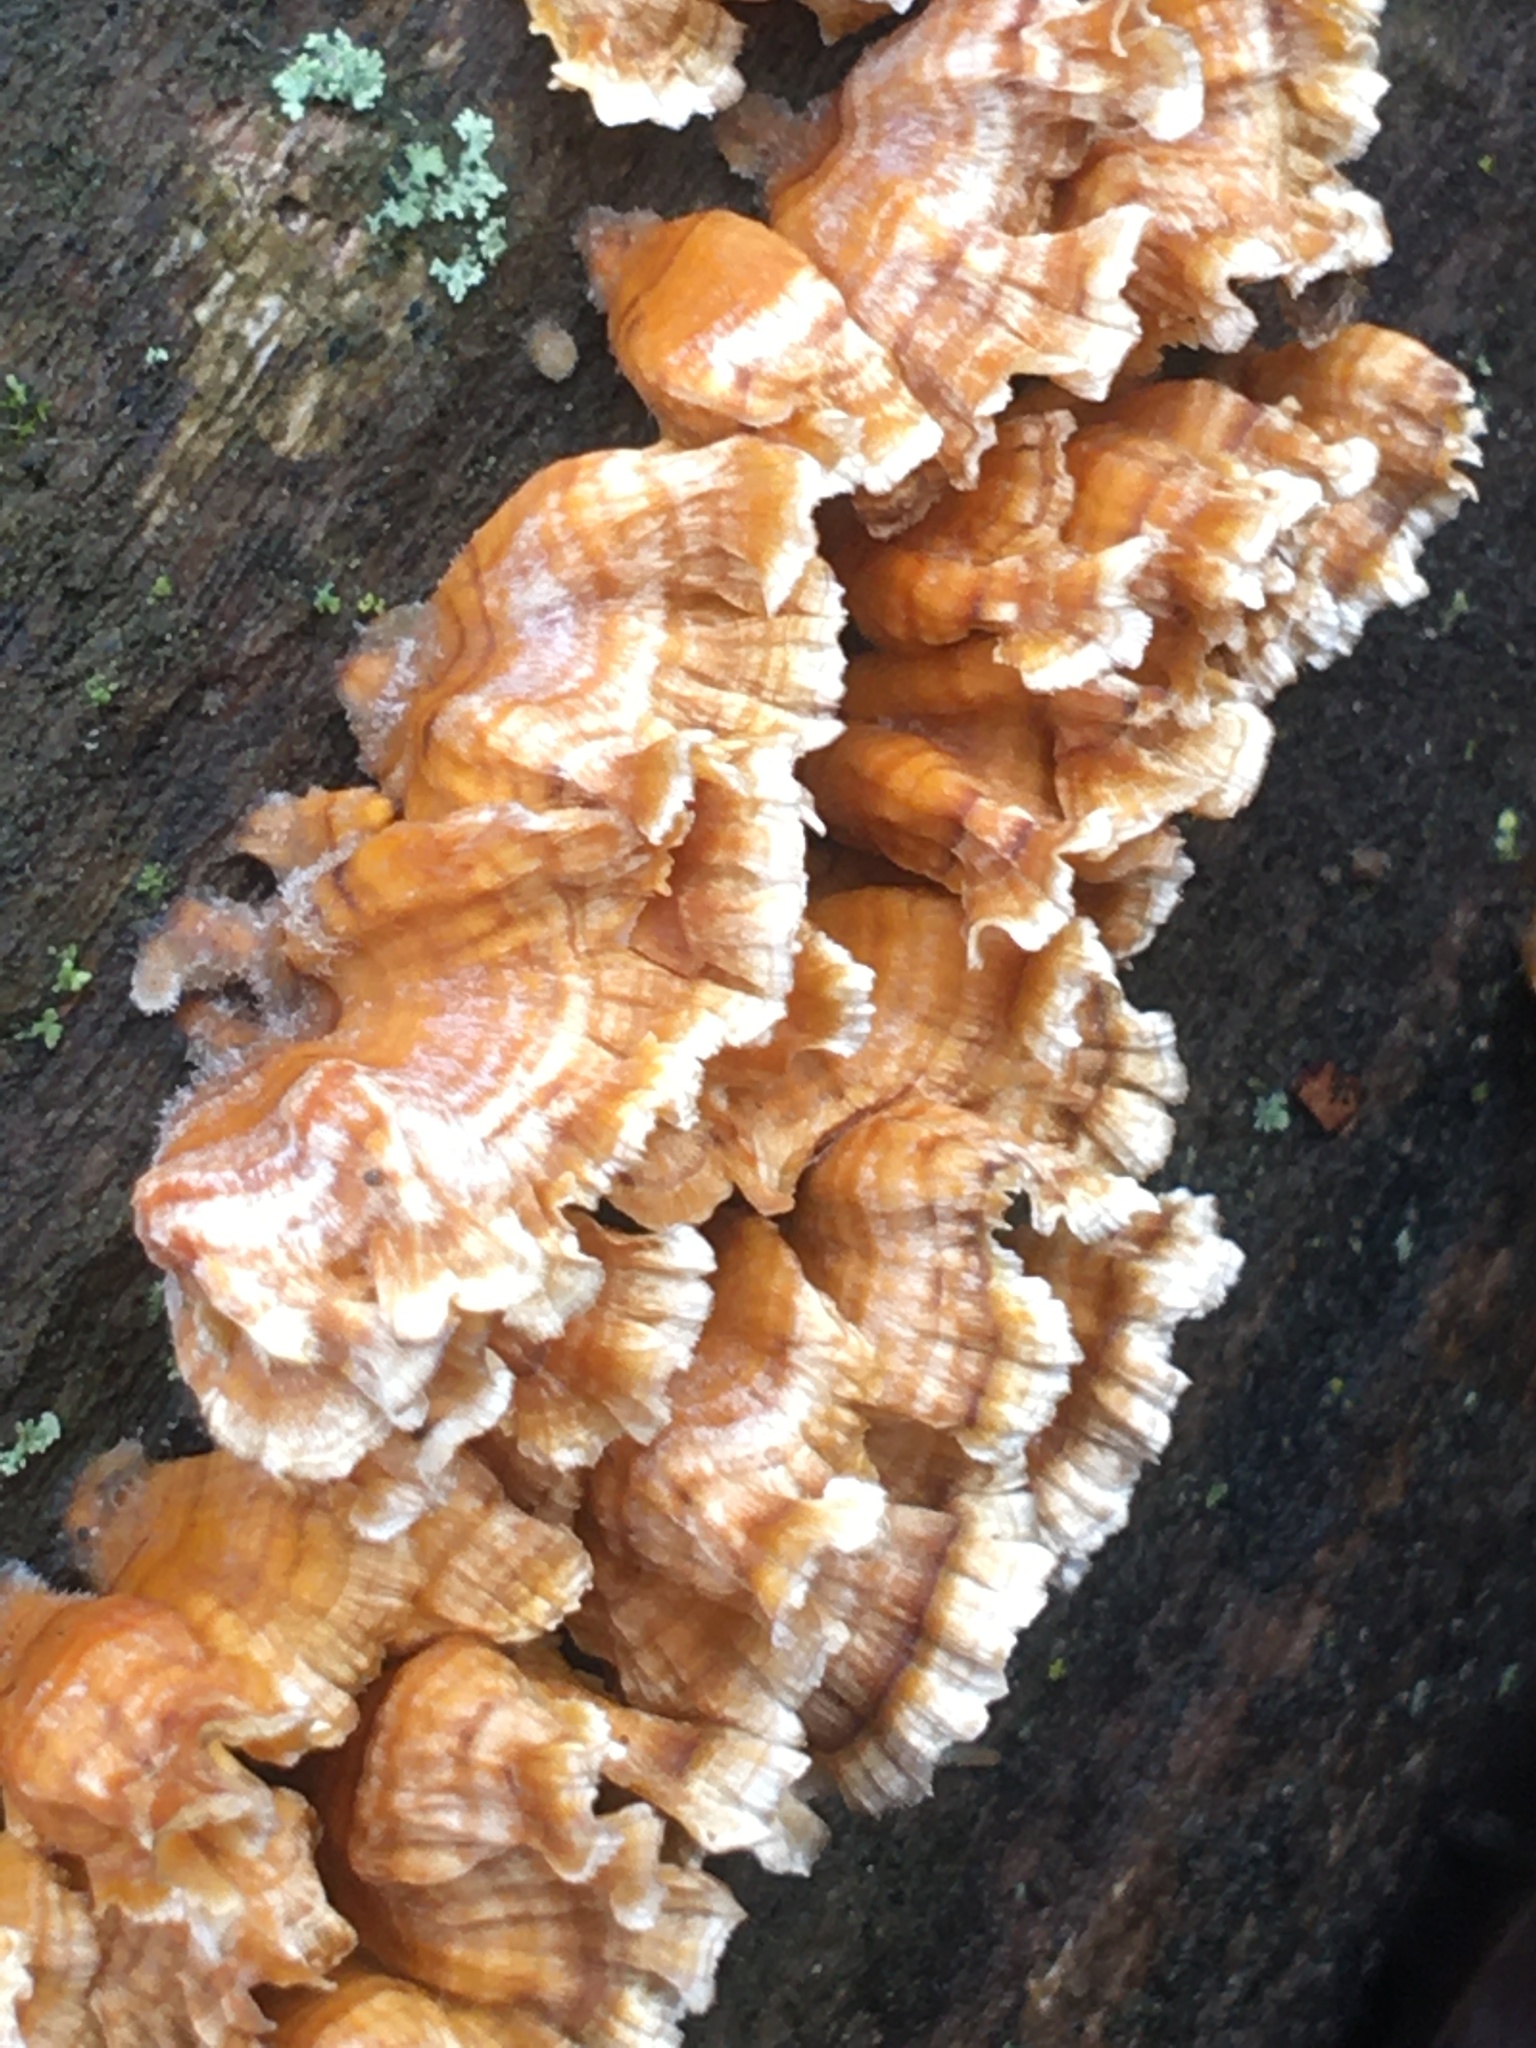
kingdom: Fungi
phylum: Basidiomycota
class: Agaricomycetes
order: Russulales
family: Stereaceae
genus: Stereum
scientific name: Stereum complicatum
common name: Crowded parchment
